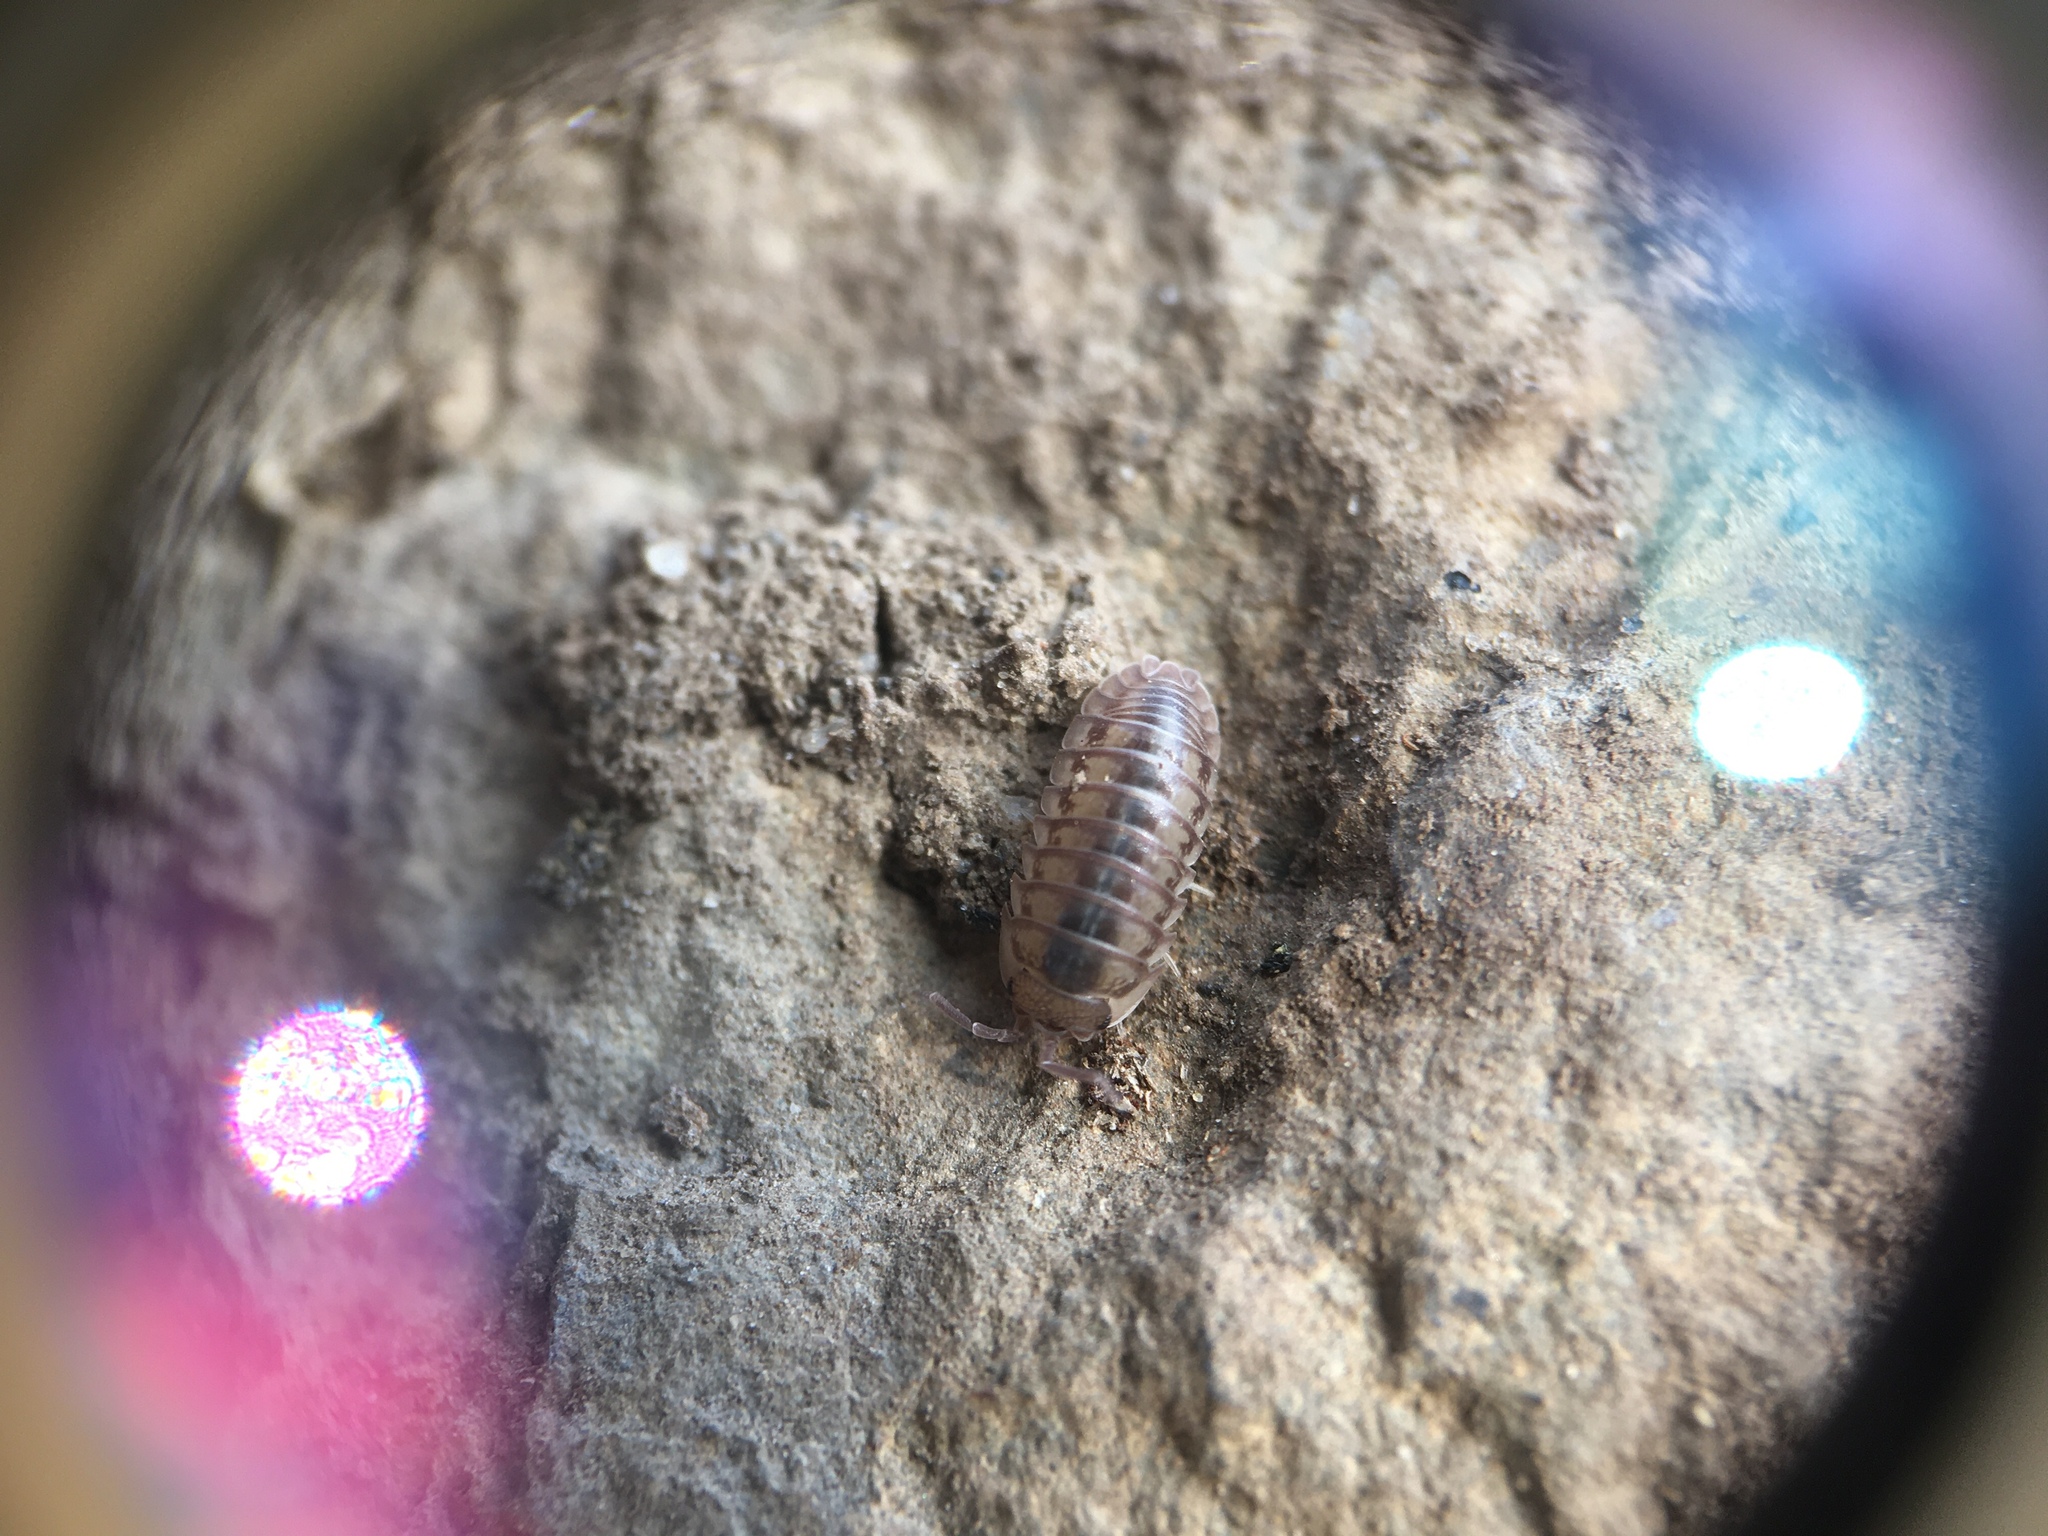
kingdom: Animalia
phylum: Arthropoda
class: Malacostraca
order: Isopoda
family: Armadillidiidae
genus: Armadillidium
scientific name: Armadillidium nasatum
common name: Isopod
